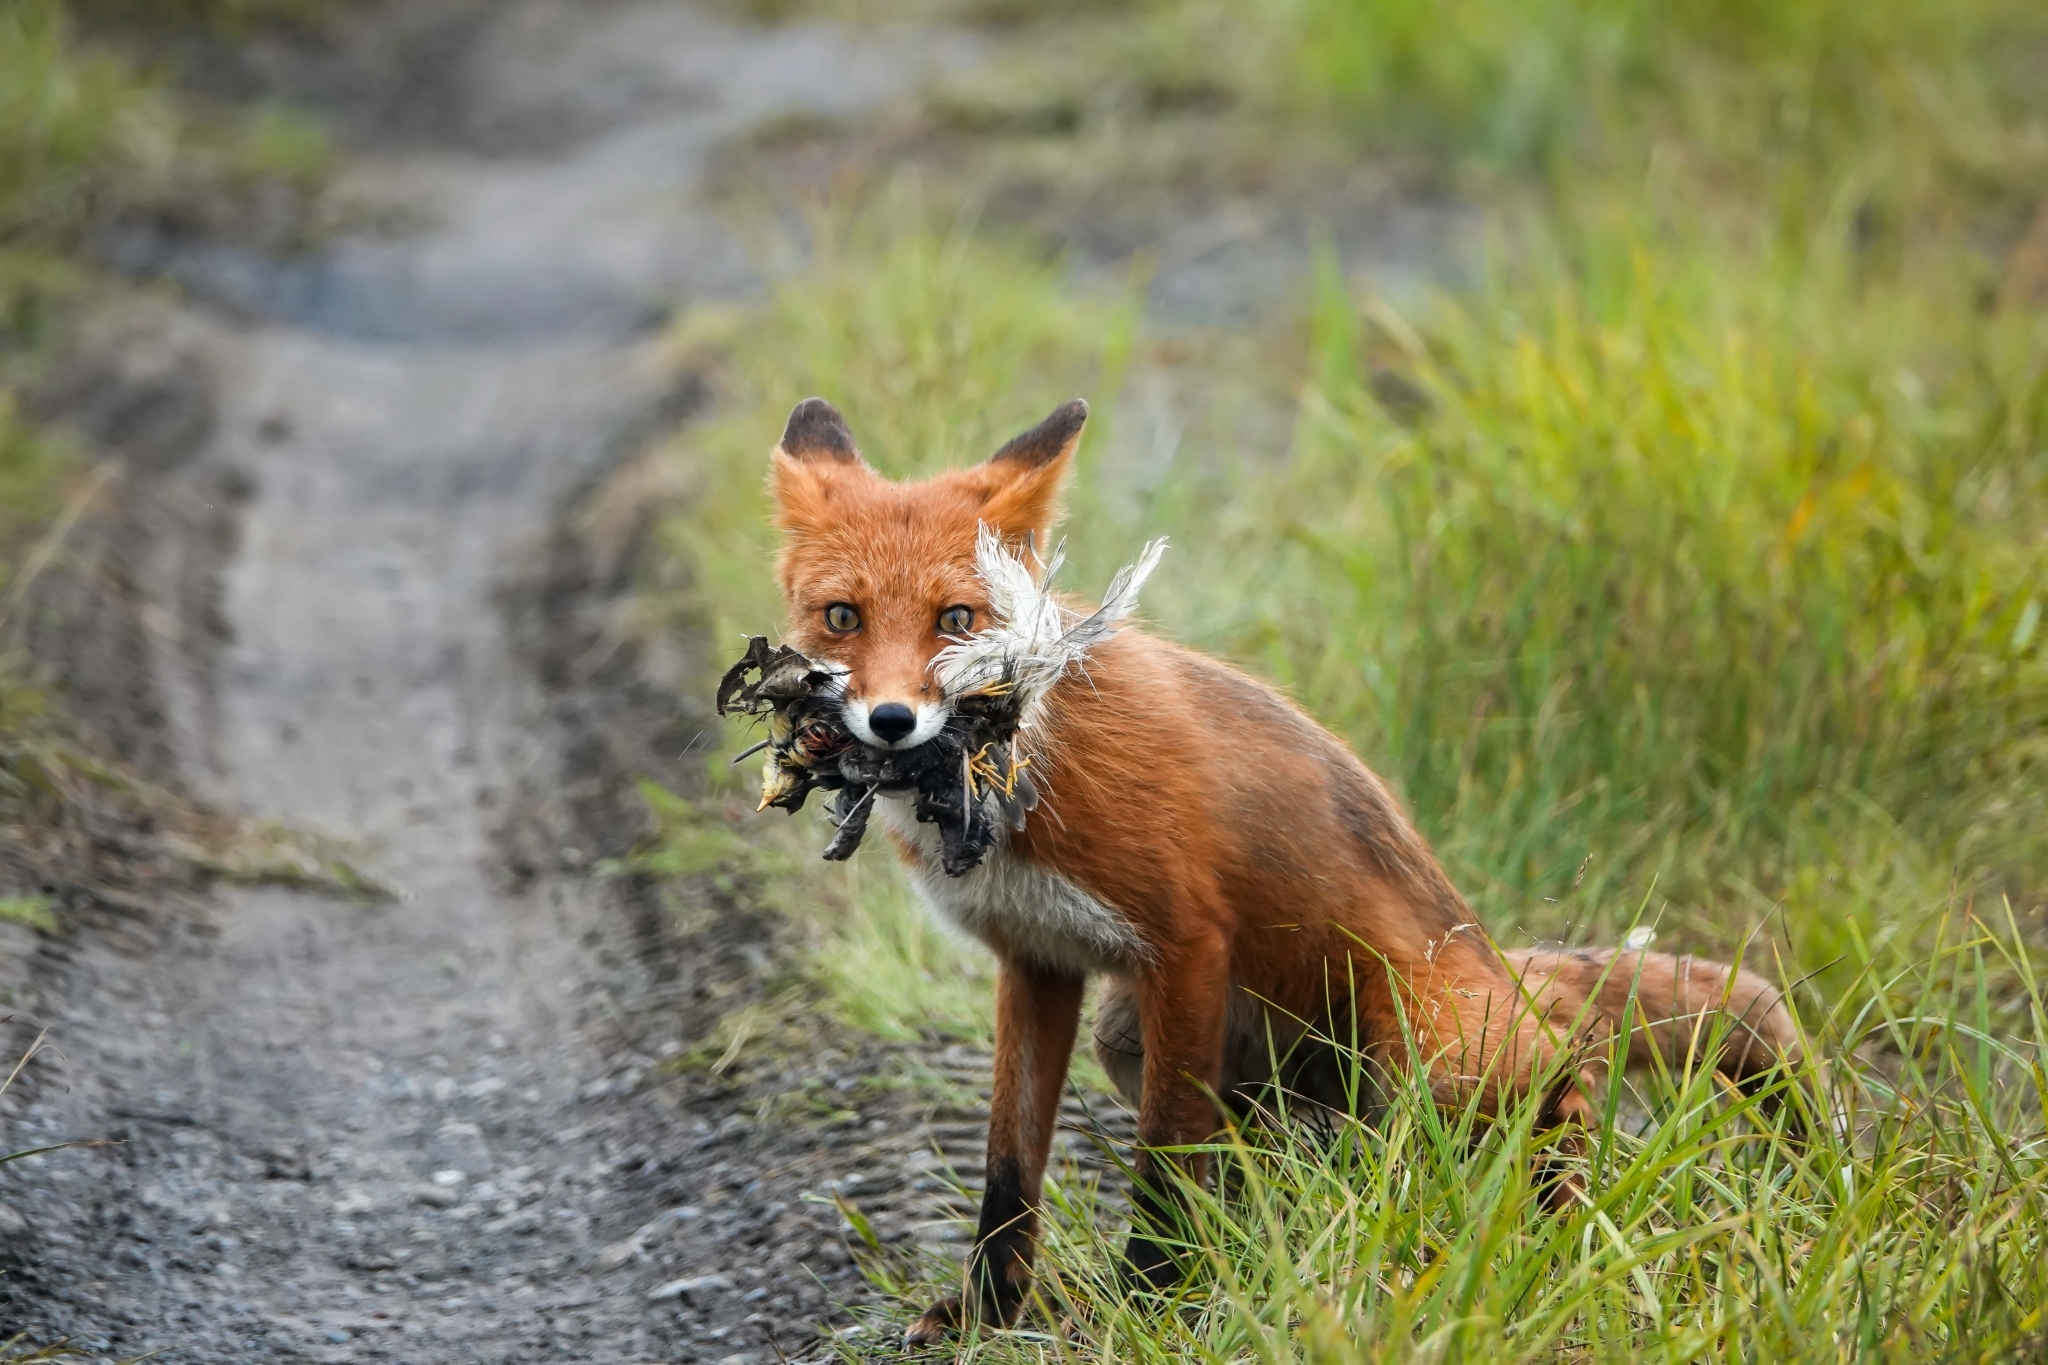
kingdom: Animalia
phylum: Chordata
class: Mammalia
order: Carnivora
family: Canidae
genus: Vulpes
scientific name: Vulpes vulpes
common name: Red fox
